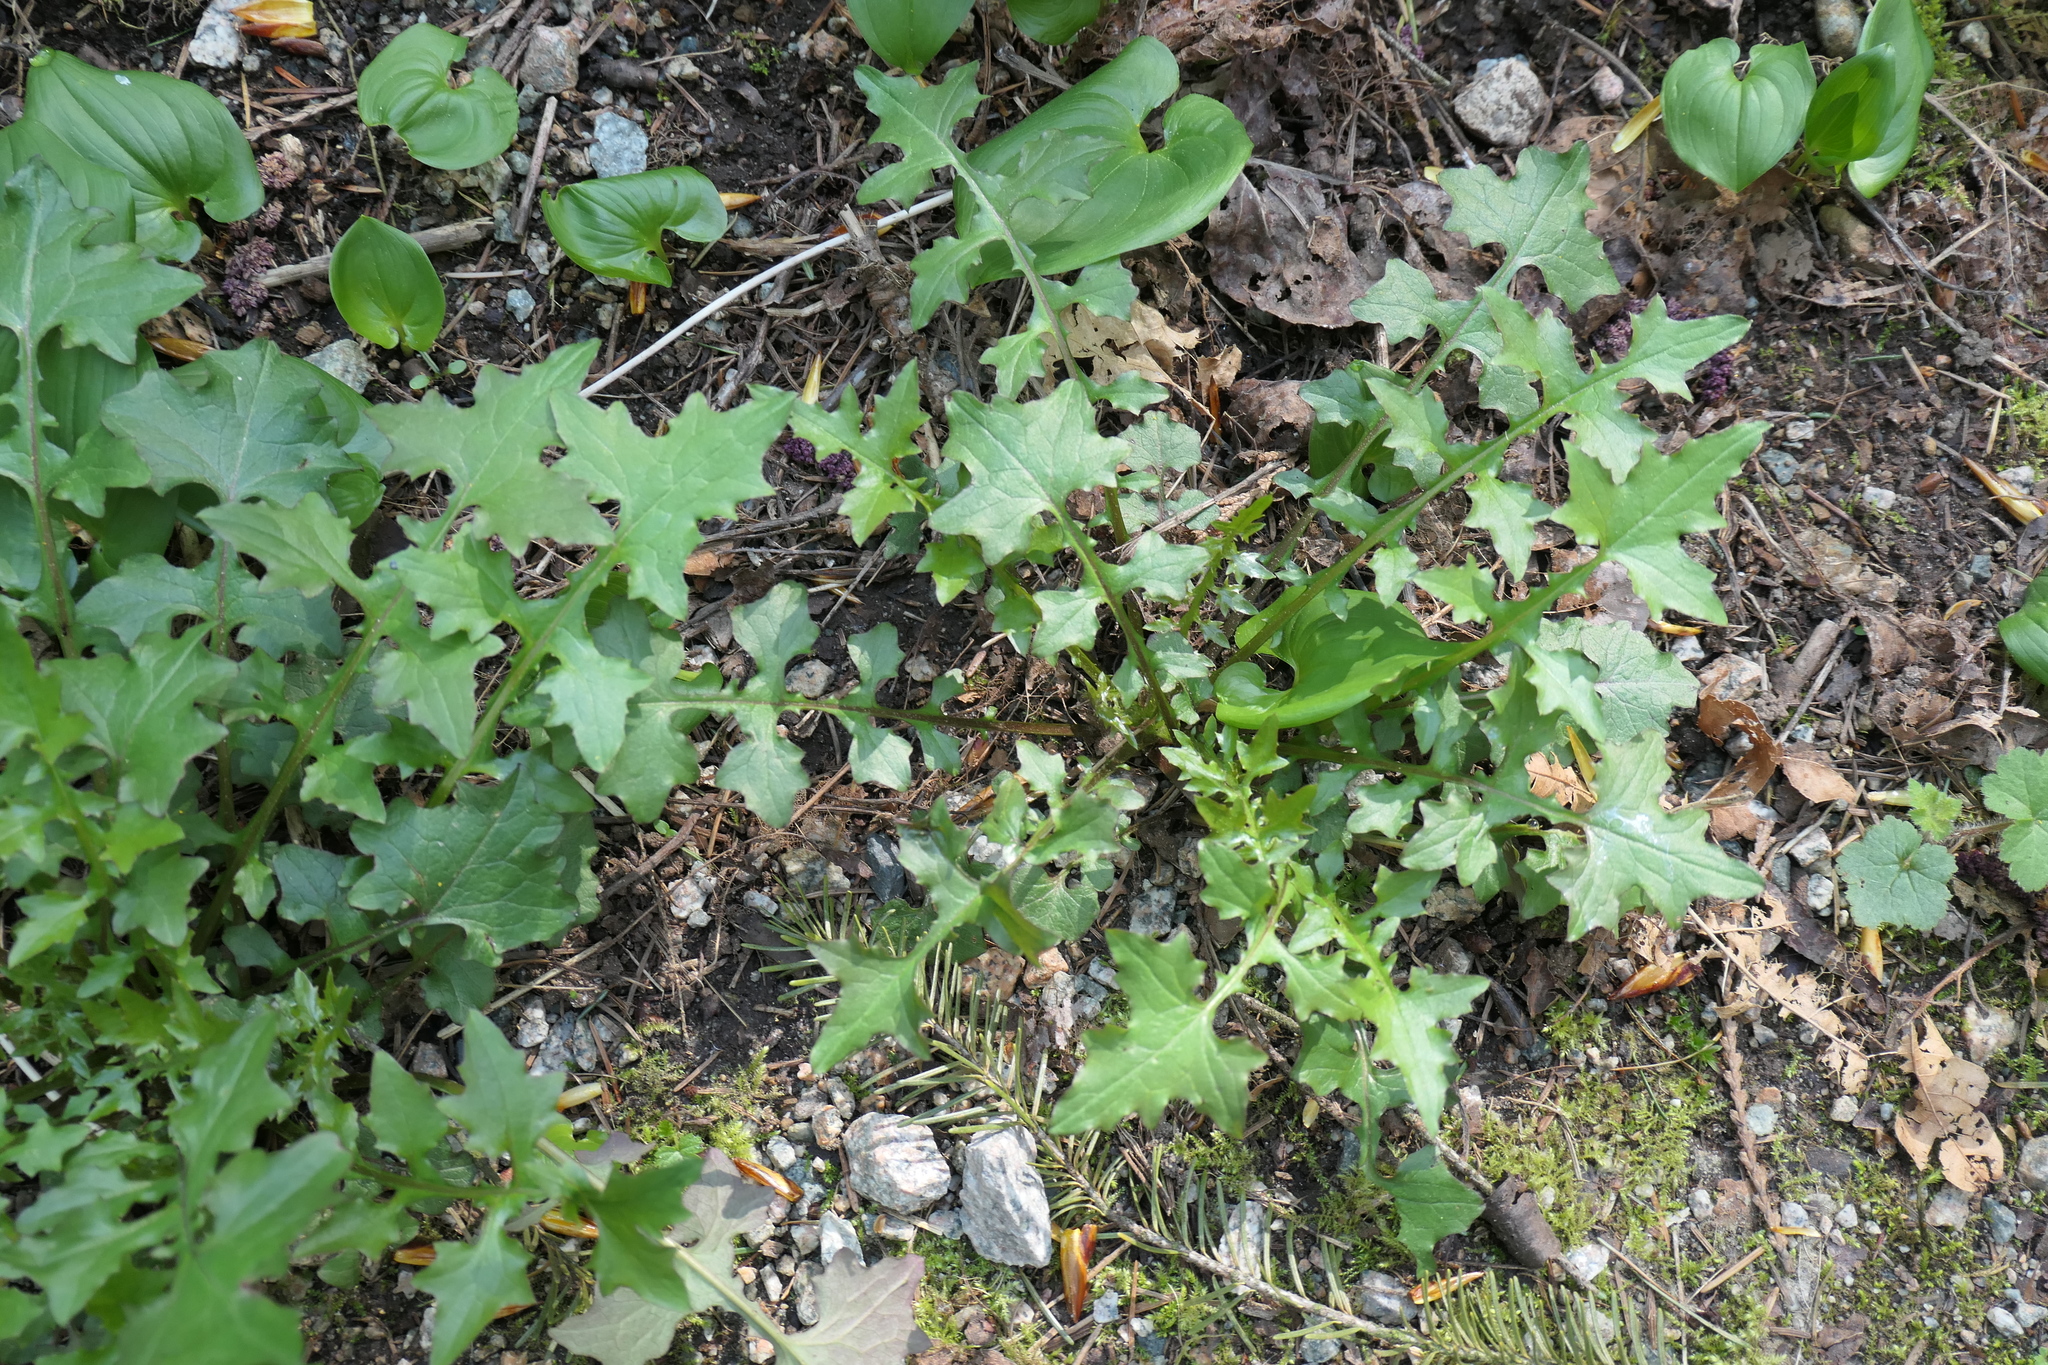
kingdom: Plantae
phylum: Tracheophyta
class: Magnoliopsida
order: Asterales
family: Asteraceae
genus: Mycelis
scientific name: Mycelis muralis
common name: Wall lettuce
